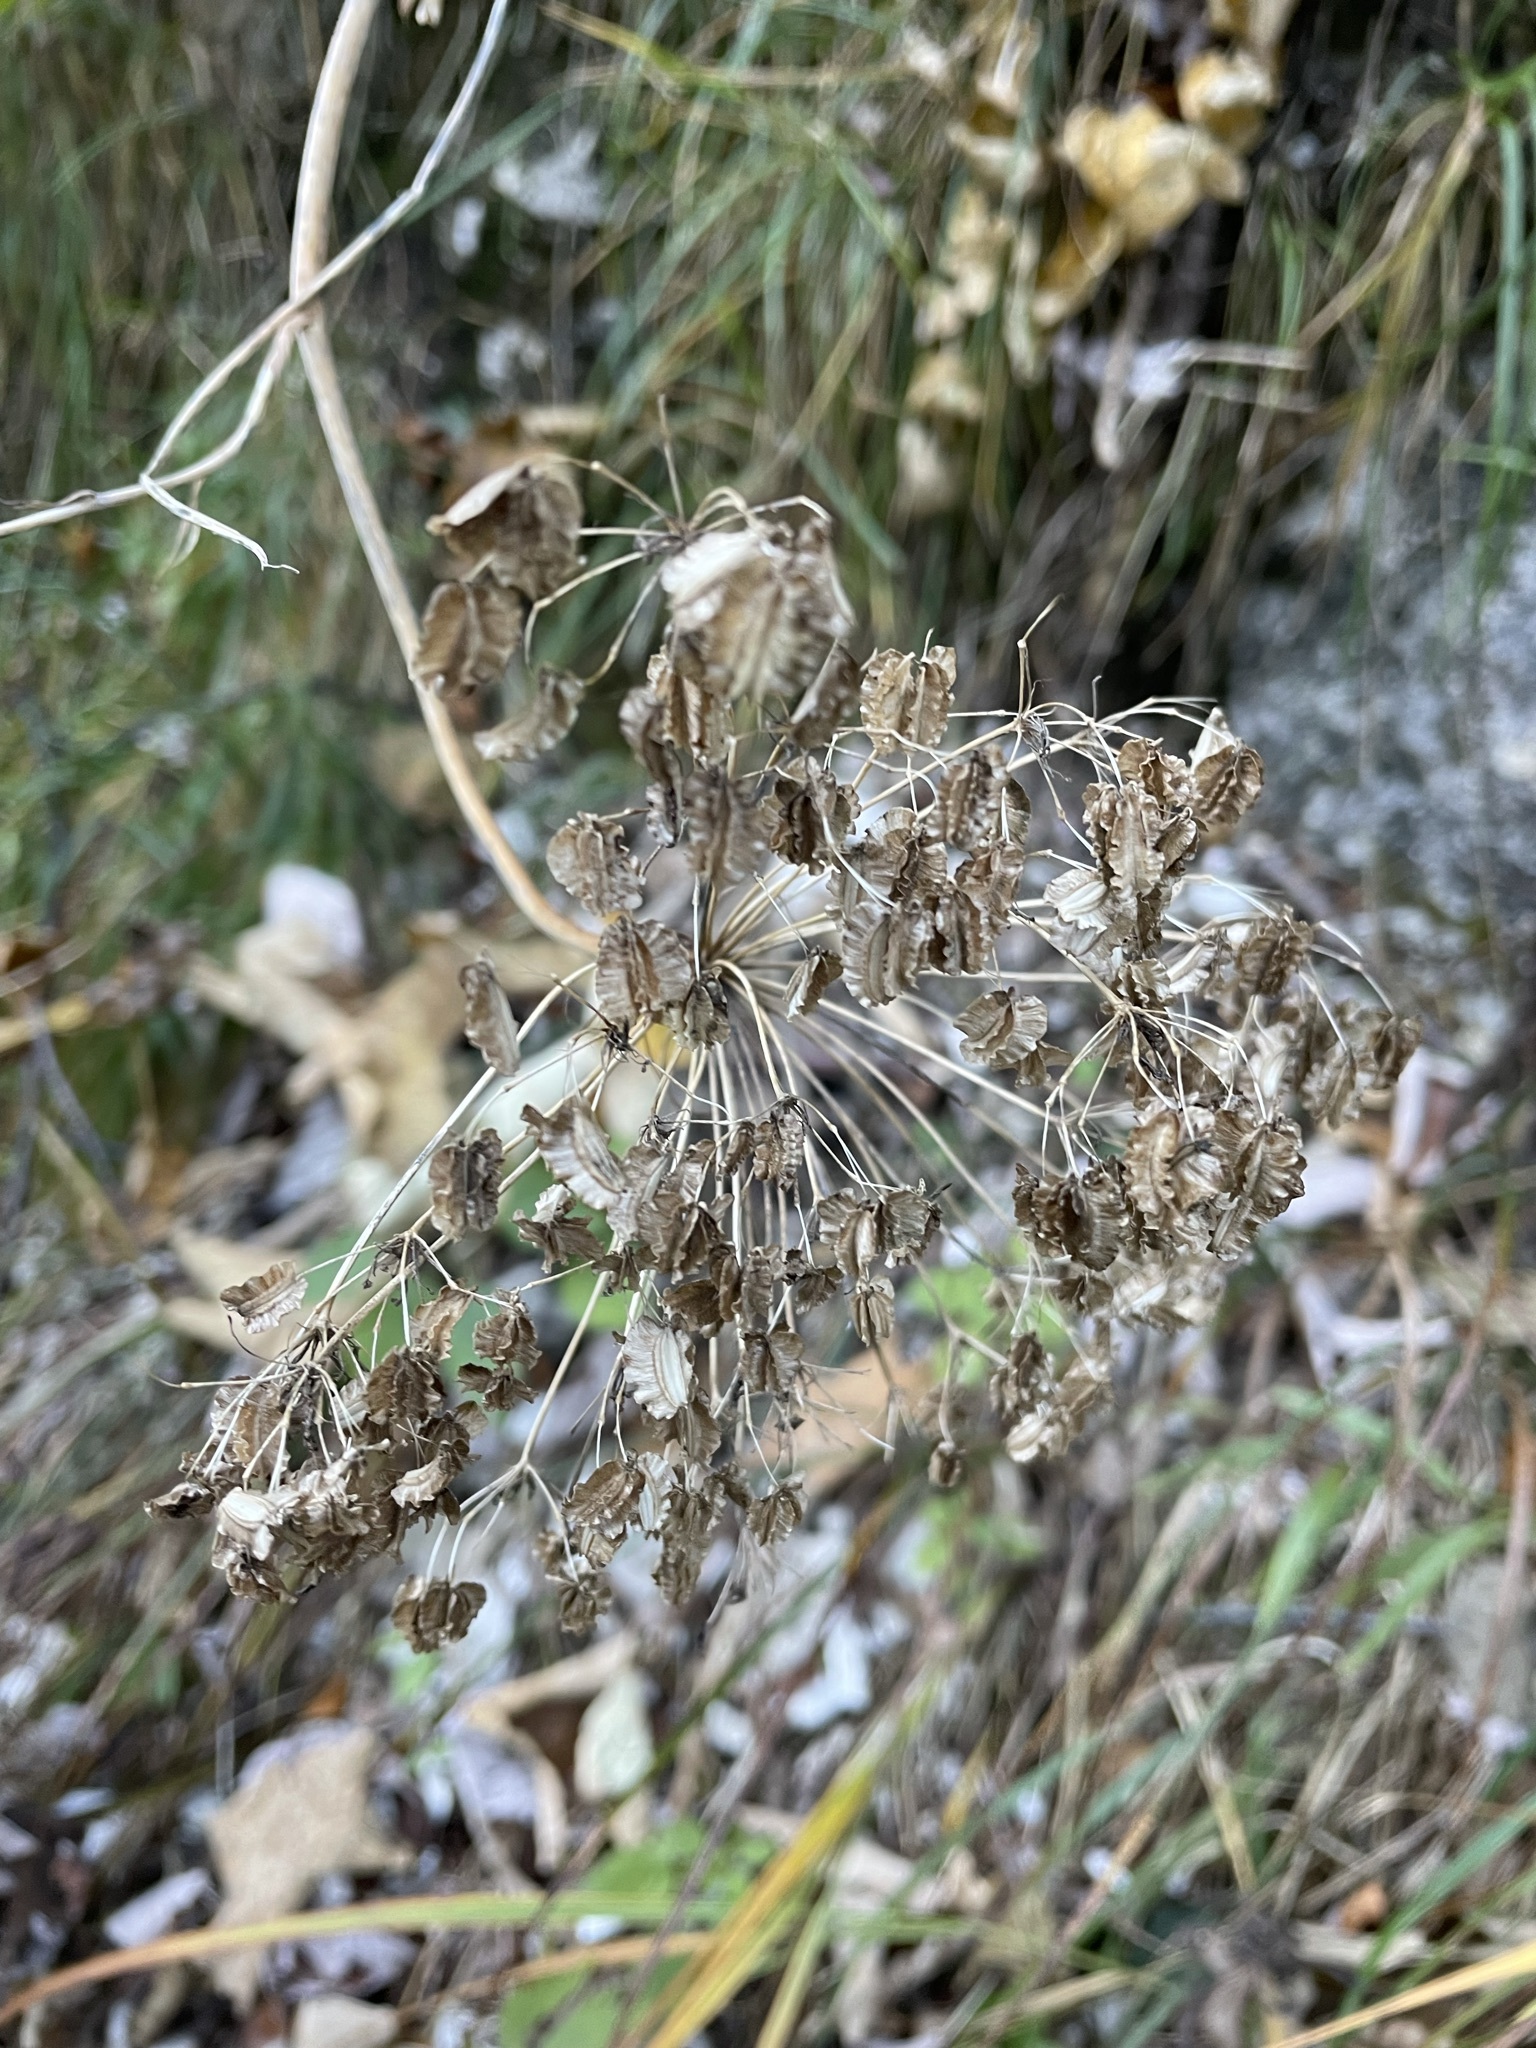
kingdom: Plantae
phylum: Tracheophyta
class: Magnoliopsida
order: Apiales
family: Apiaceae
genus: Angelica
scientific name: Angelica sylvestris
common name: Wild angelica
